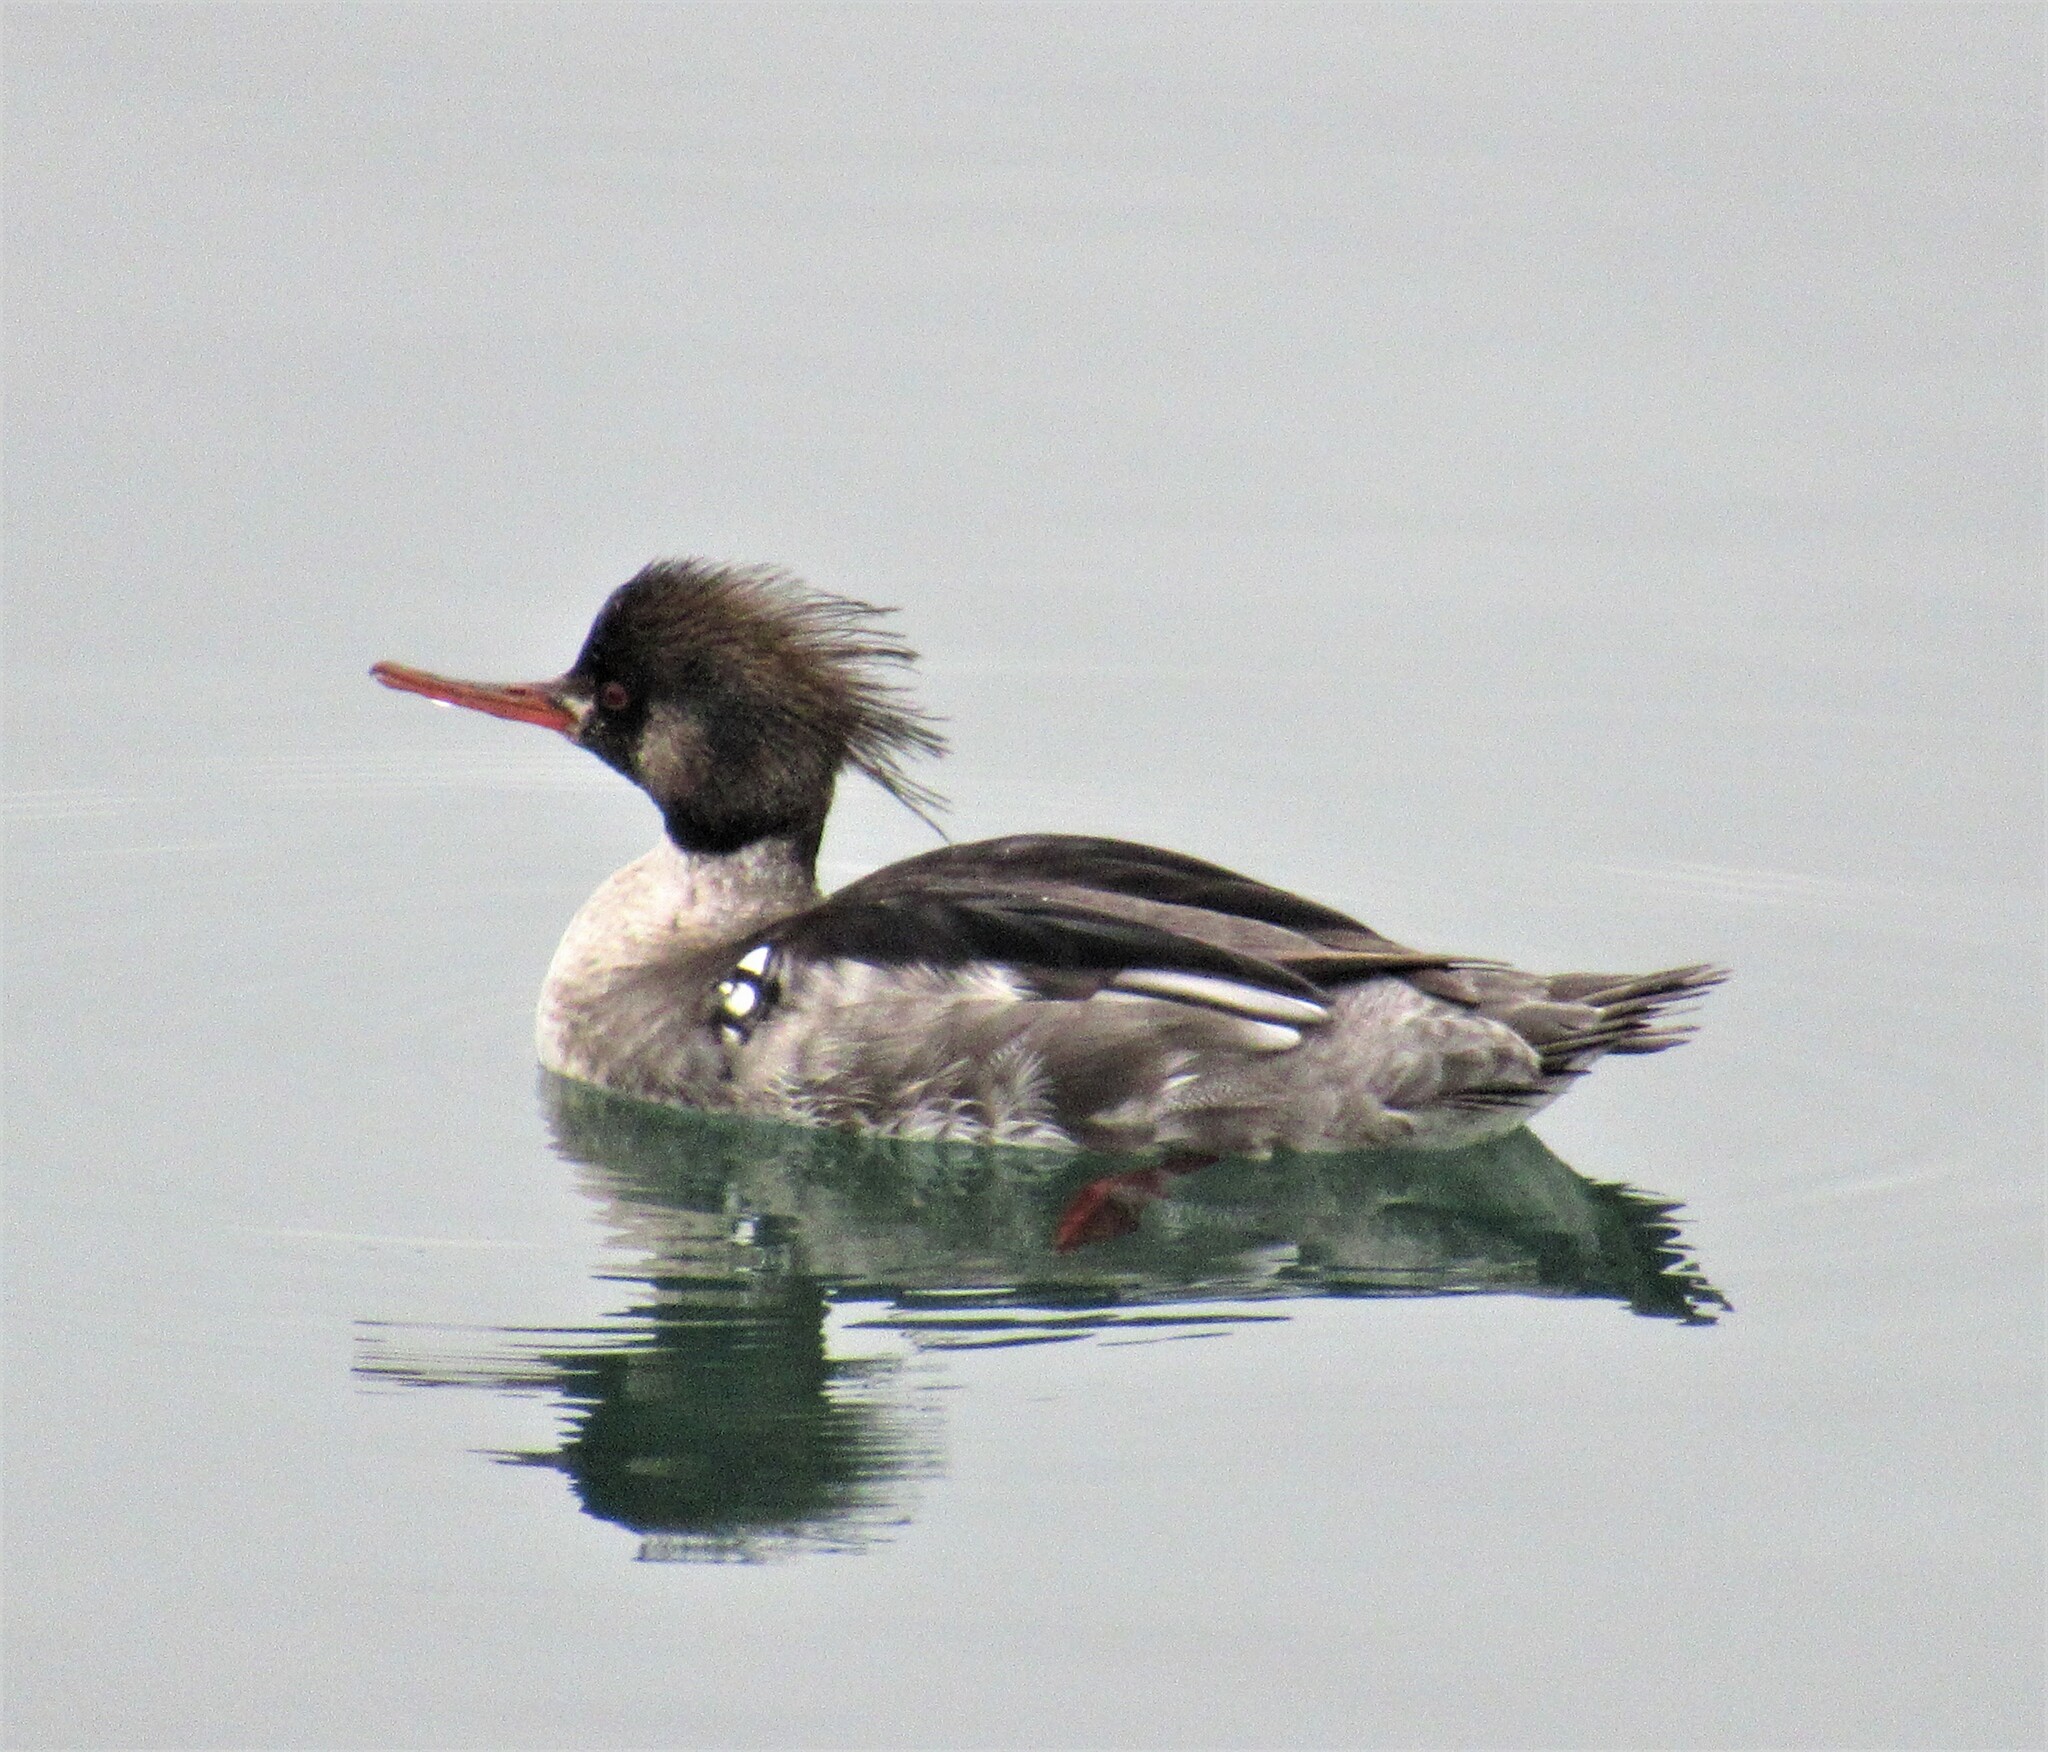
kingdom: Animalia
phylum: Chordata
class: Aves
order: Anseriformes
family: Anatidae
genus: Mergus
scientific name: Mergus serrator
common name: Red-breasted merganser
